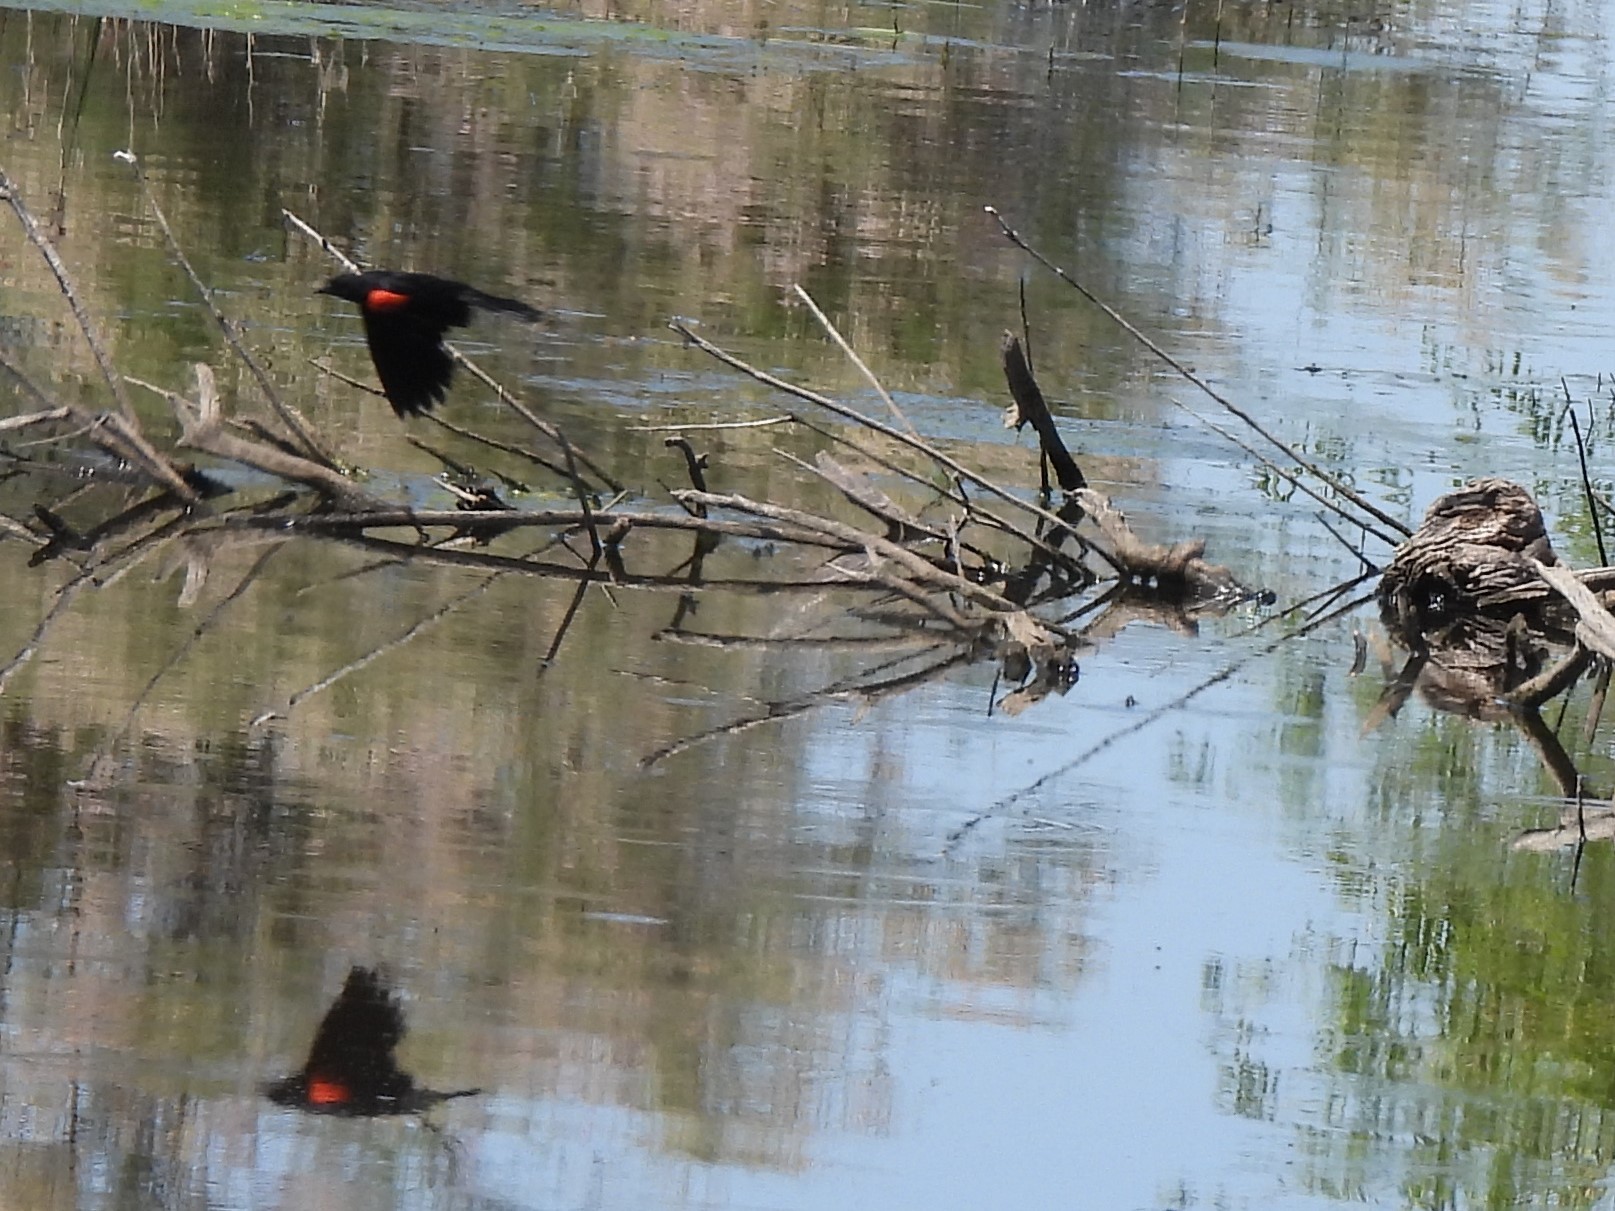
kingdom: Animalia
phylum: Chordata
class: Aves
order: Passeriformes
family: Icteridae
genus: Agelaius
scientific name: Agelaius phoeniceus
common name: Red-winged blackbird
